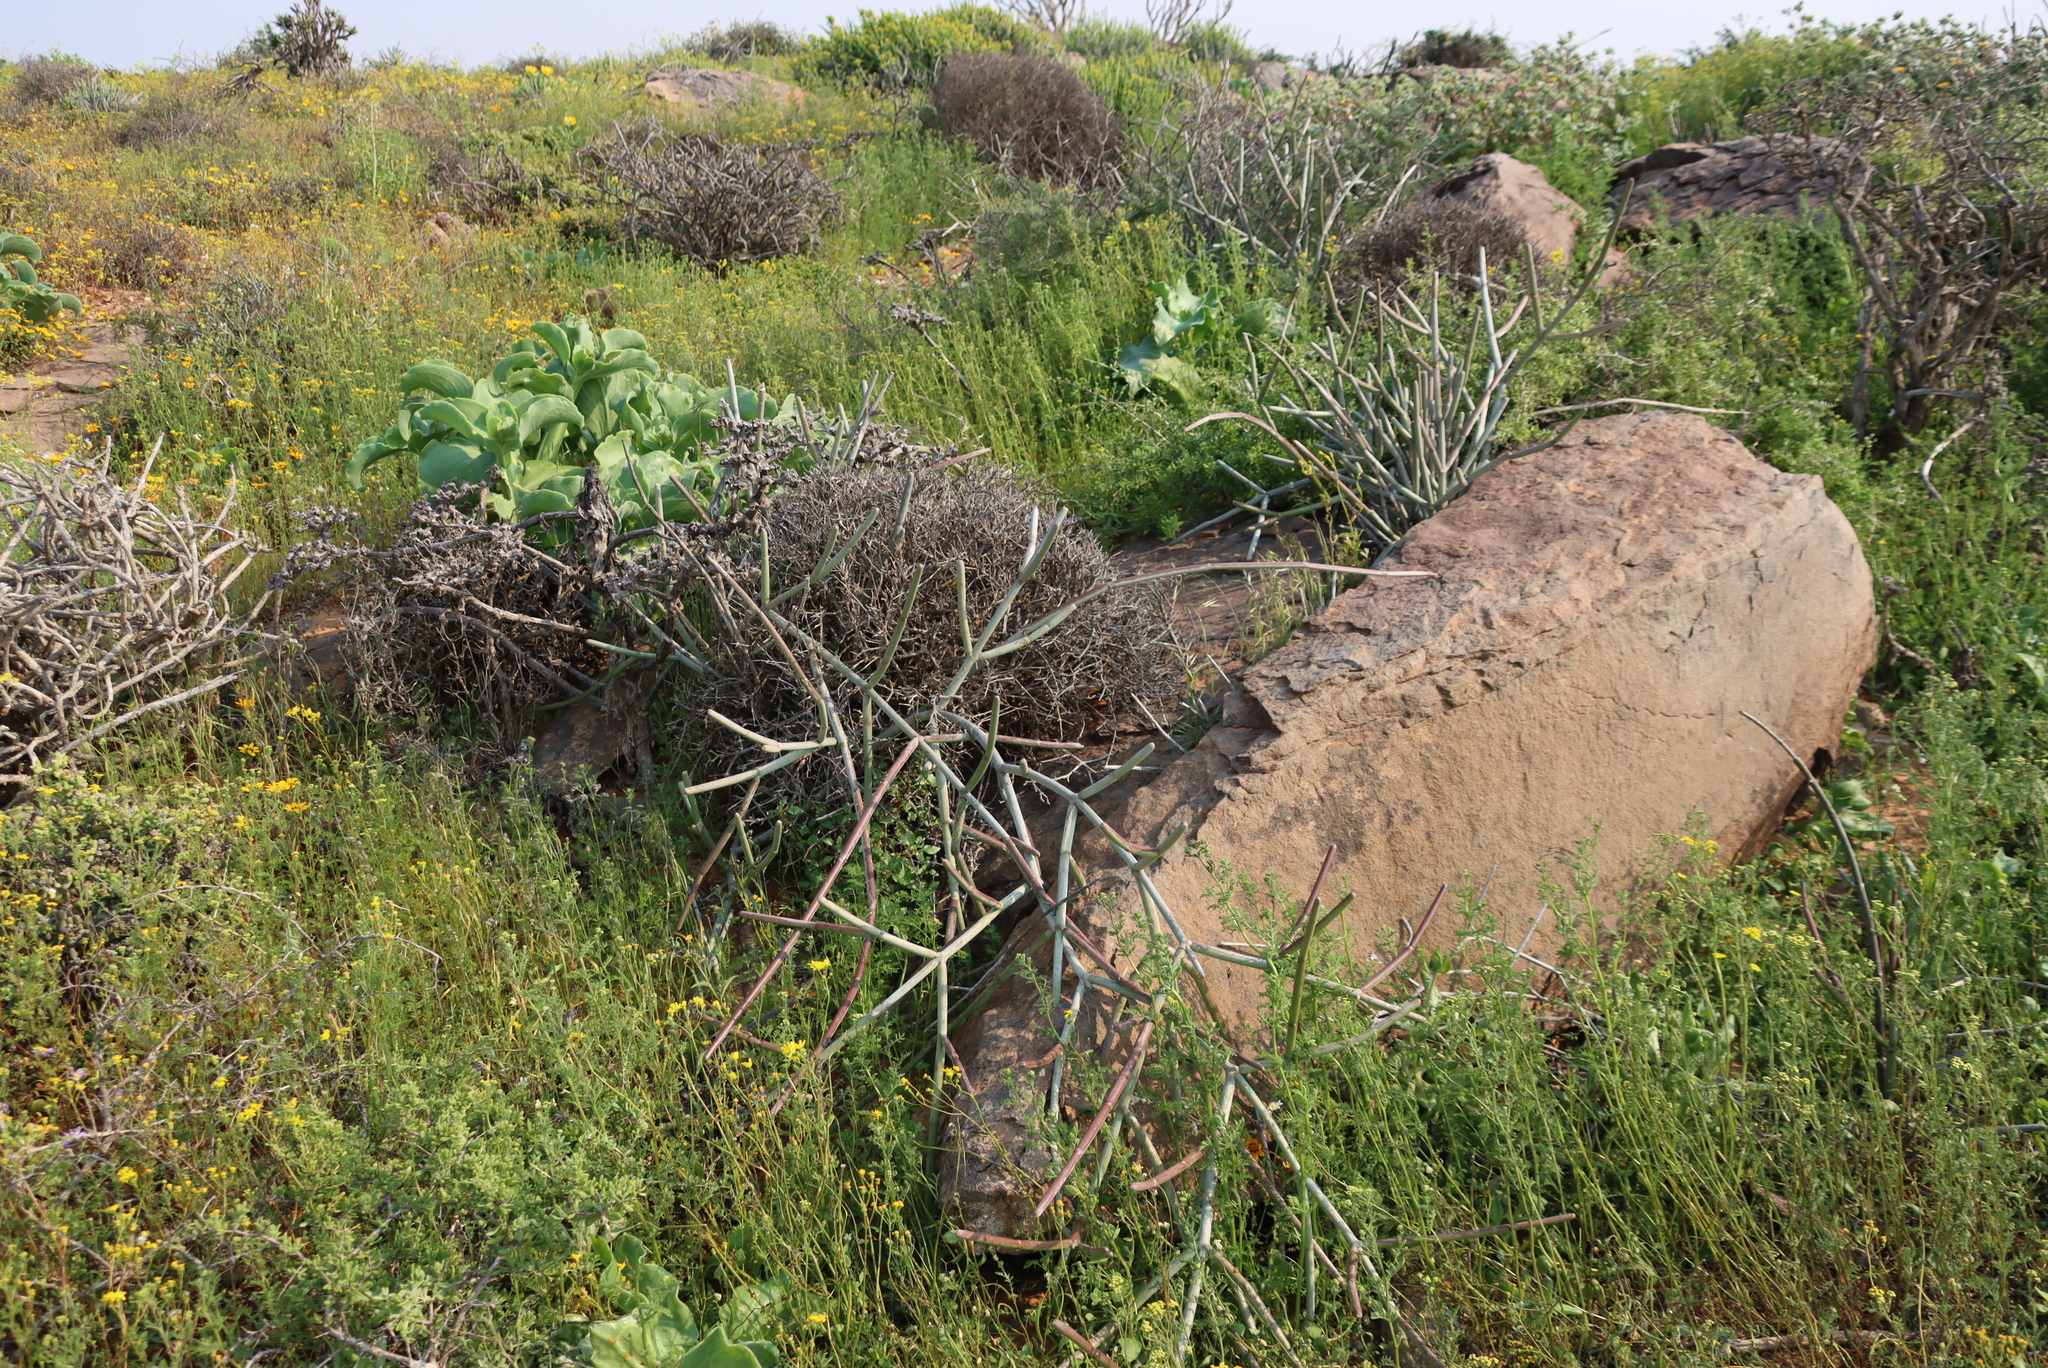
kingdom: Plantae
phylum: Tracheophyta
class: Magnoliopsida
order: Gentianales
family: Apocynaceae
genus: Cynanchum
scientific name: Cynanchum viminale
